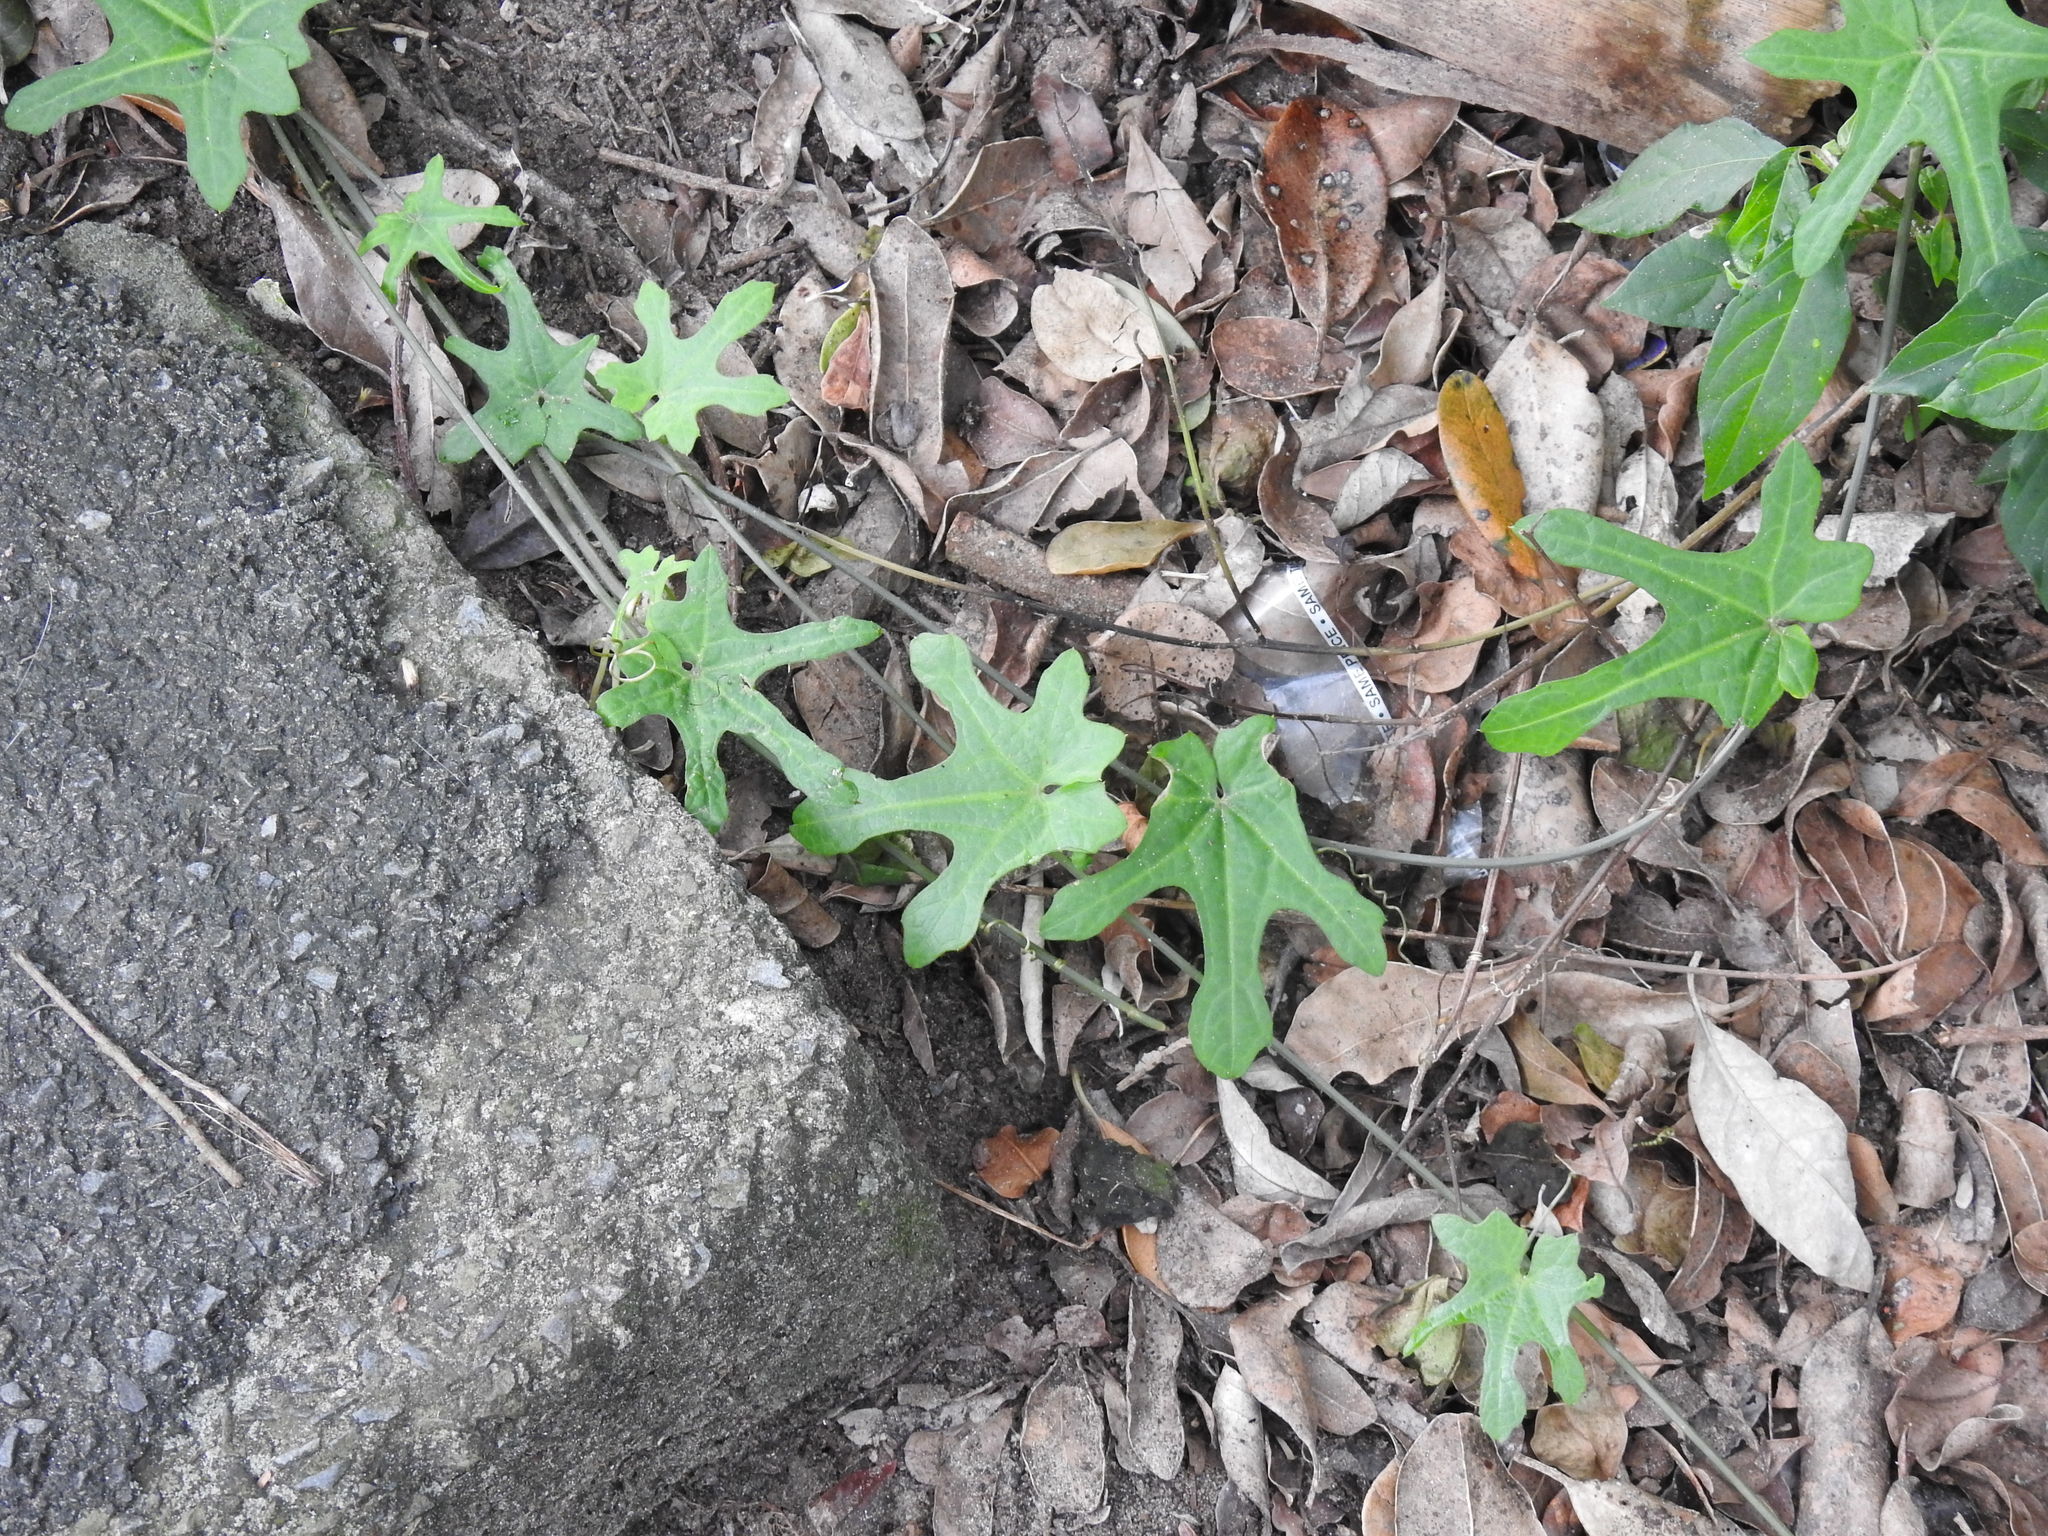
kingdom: Plantae
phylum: Tracheophyta
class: Magnoliopsida
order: Cucurbitales
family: Cucurbitaceae
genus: Coccinia
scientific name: Coccinia quinqueloba
